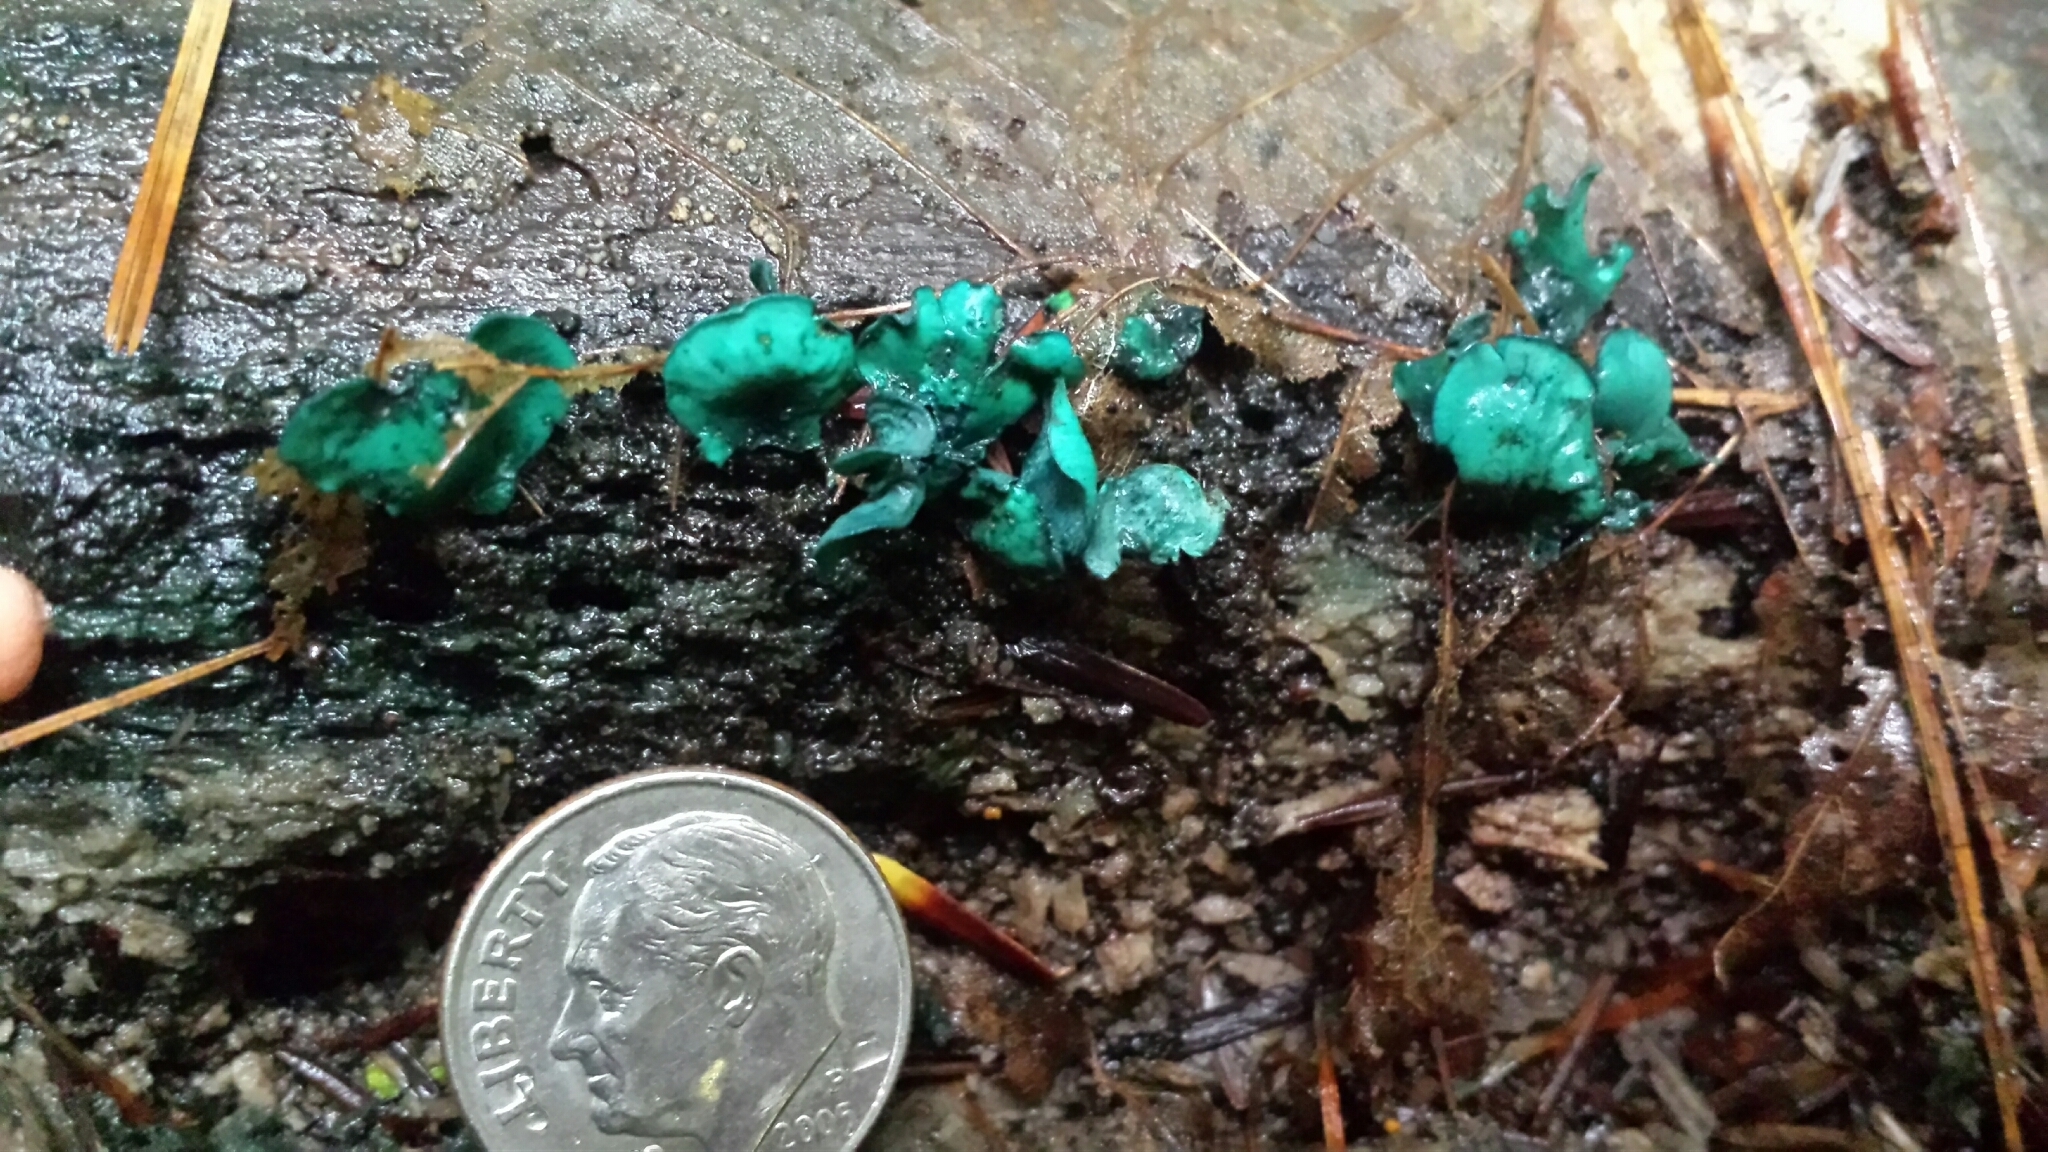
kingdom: Fungi
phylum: Ascomycota
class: Leotiomycetes
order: Helotiales
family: Chlorociboriaceae
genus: Chlorociboria
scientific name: Chlorociboria aeruginascens
